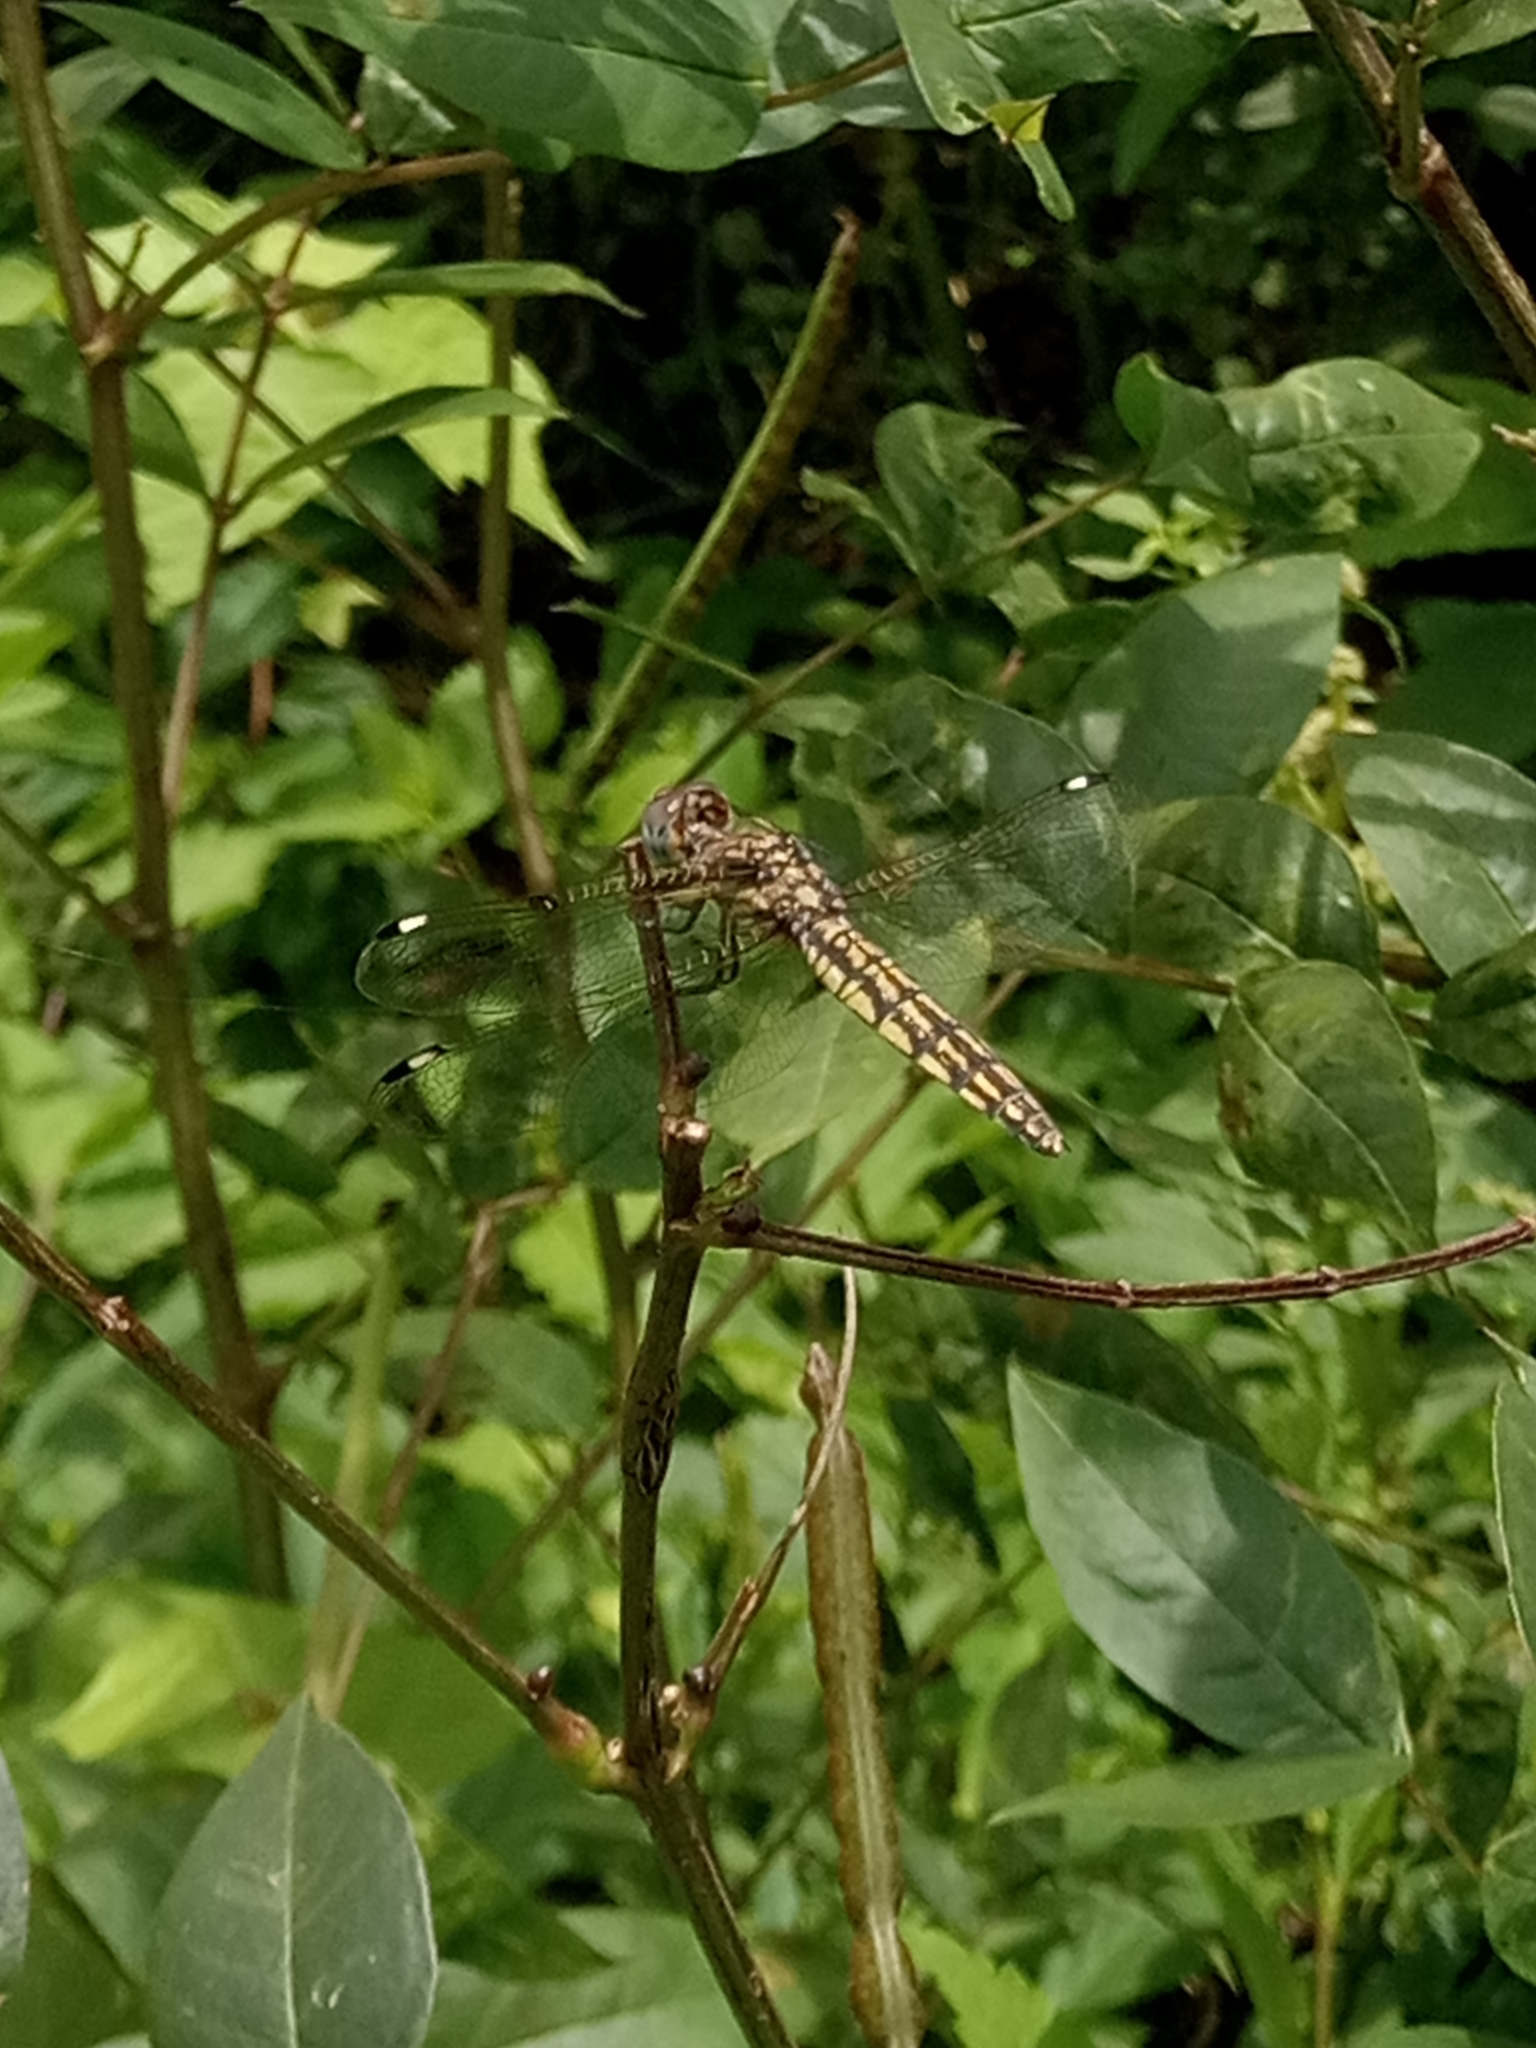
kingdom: Animalia
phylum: Arthropoda
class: Insecta
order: Odonata
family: Libellulidae
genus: Palpopleura
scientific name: Palpopleura deceptor
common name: Deceptive widow
